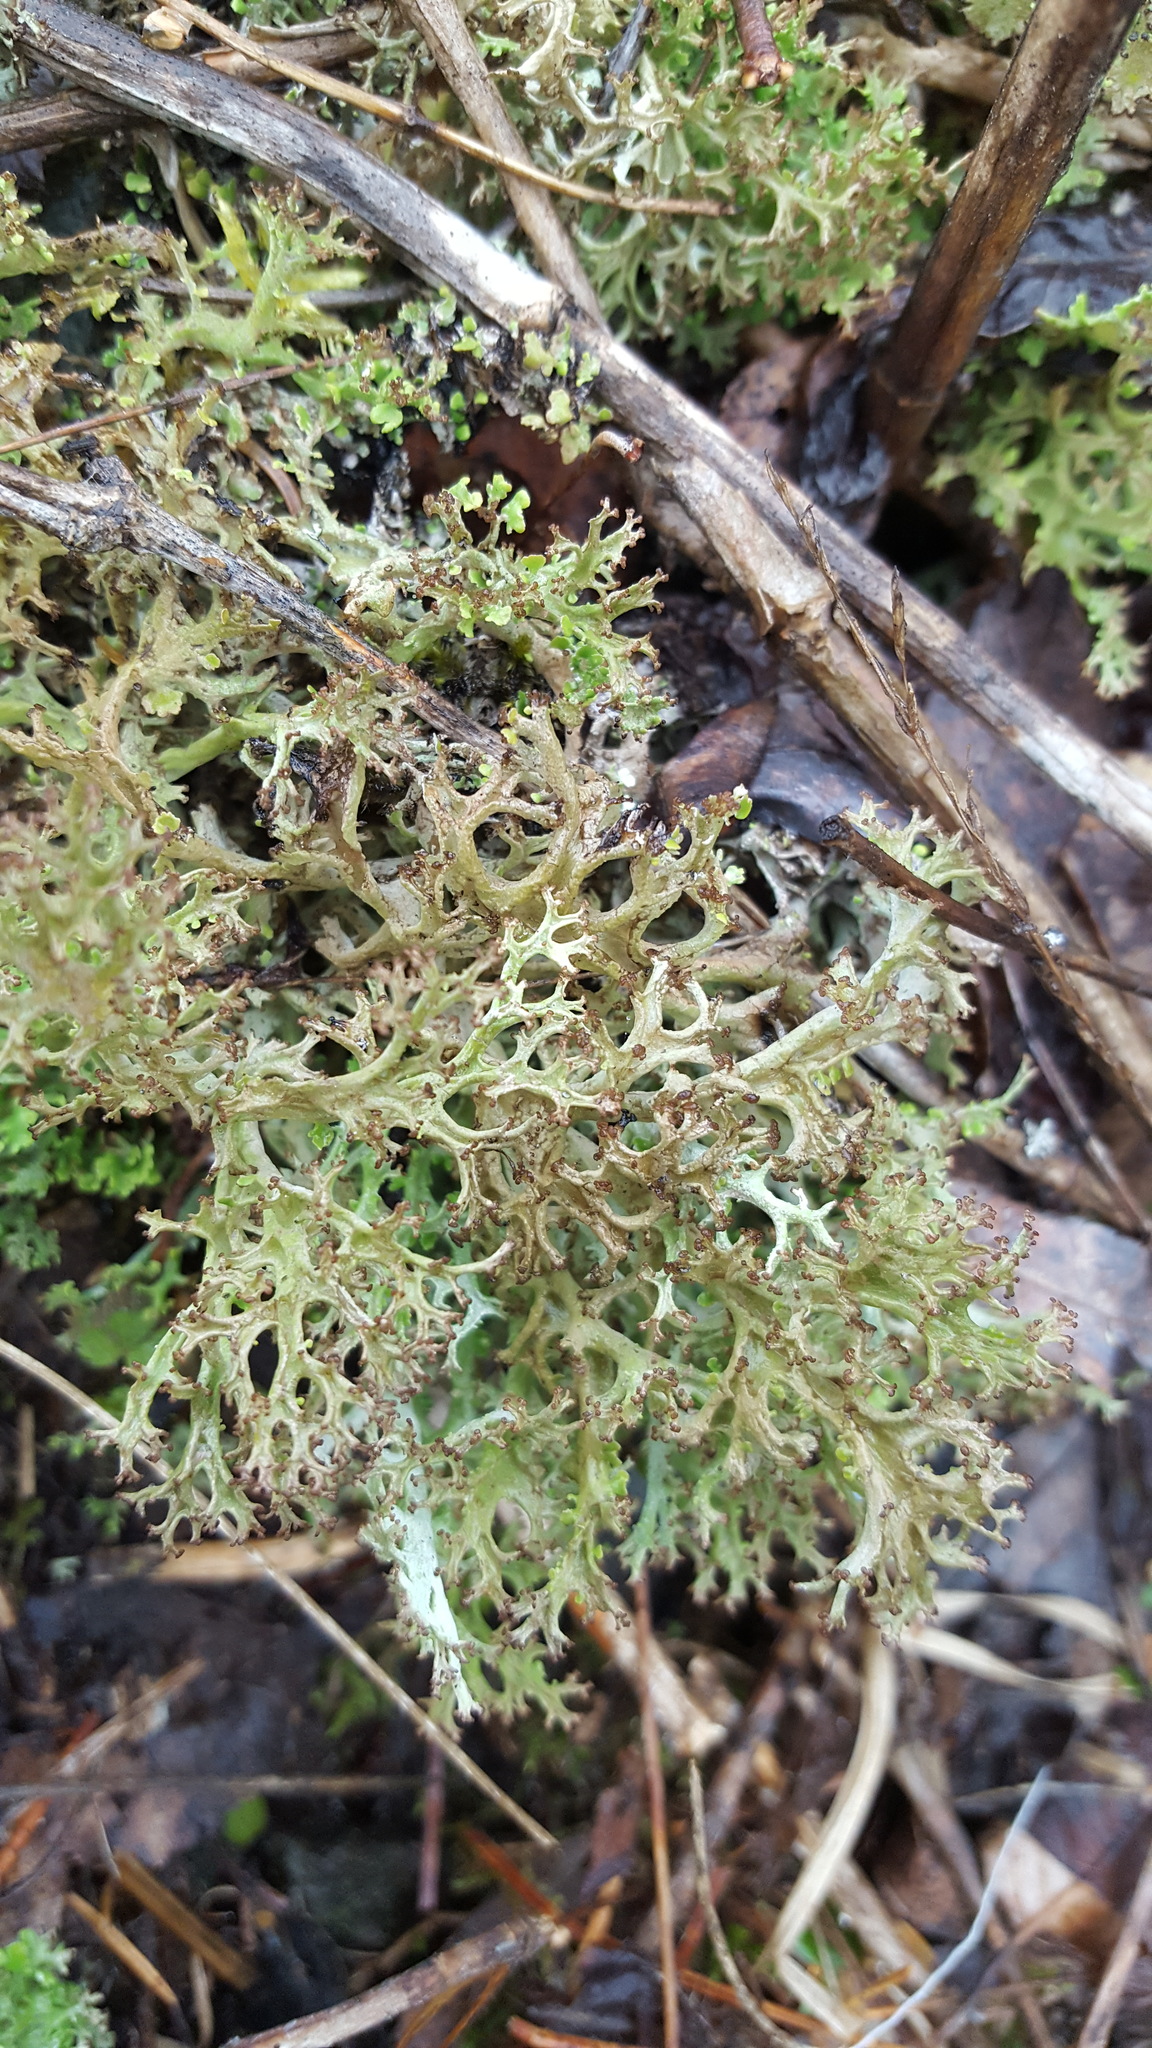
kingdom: Fungi
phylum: Ascomycota
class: Lecanoromycetes
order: Lecanorales
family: Cladoniaceae
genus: Cladonia
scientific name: Cladonia multiformis
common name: Sieve lichen
